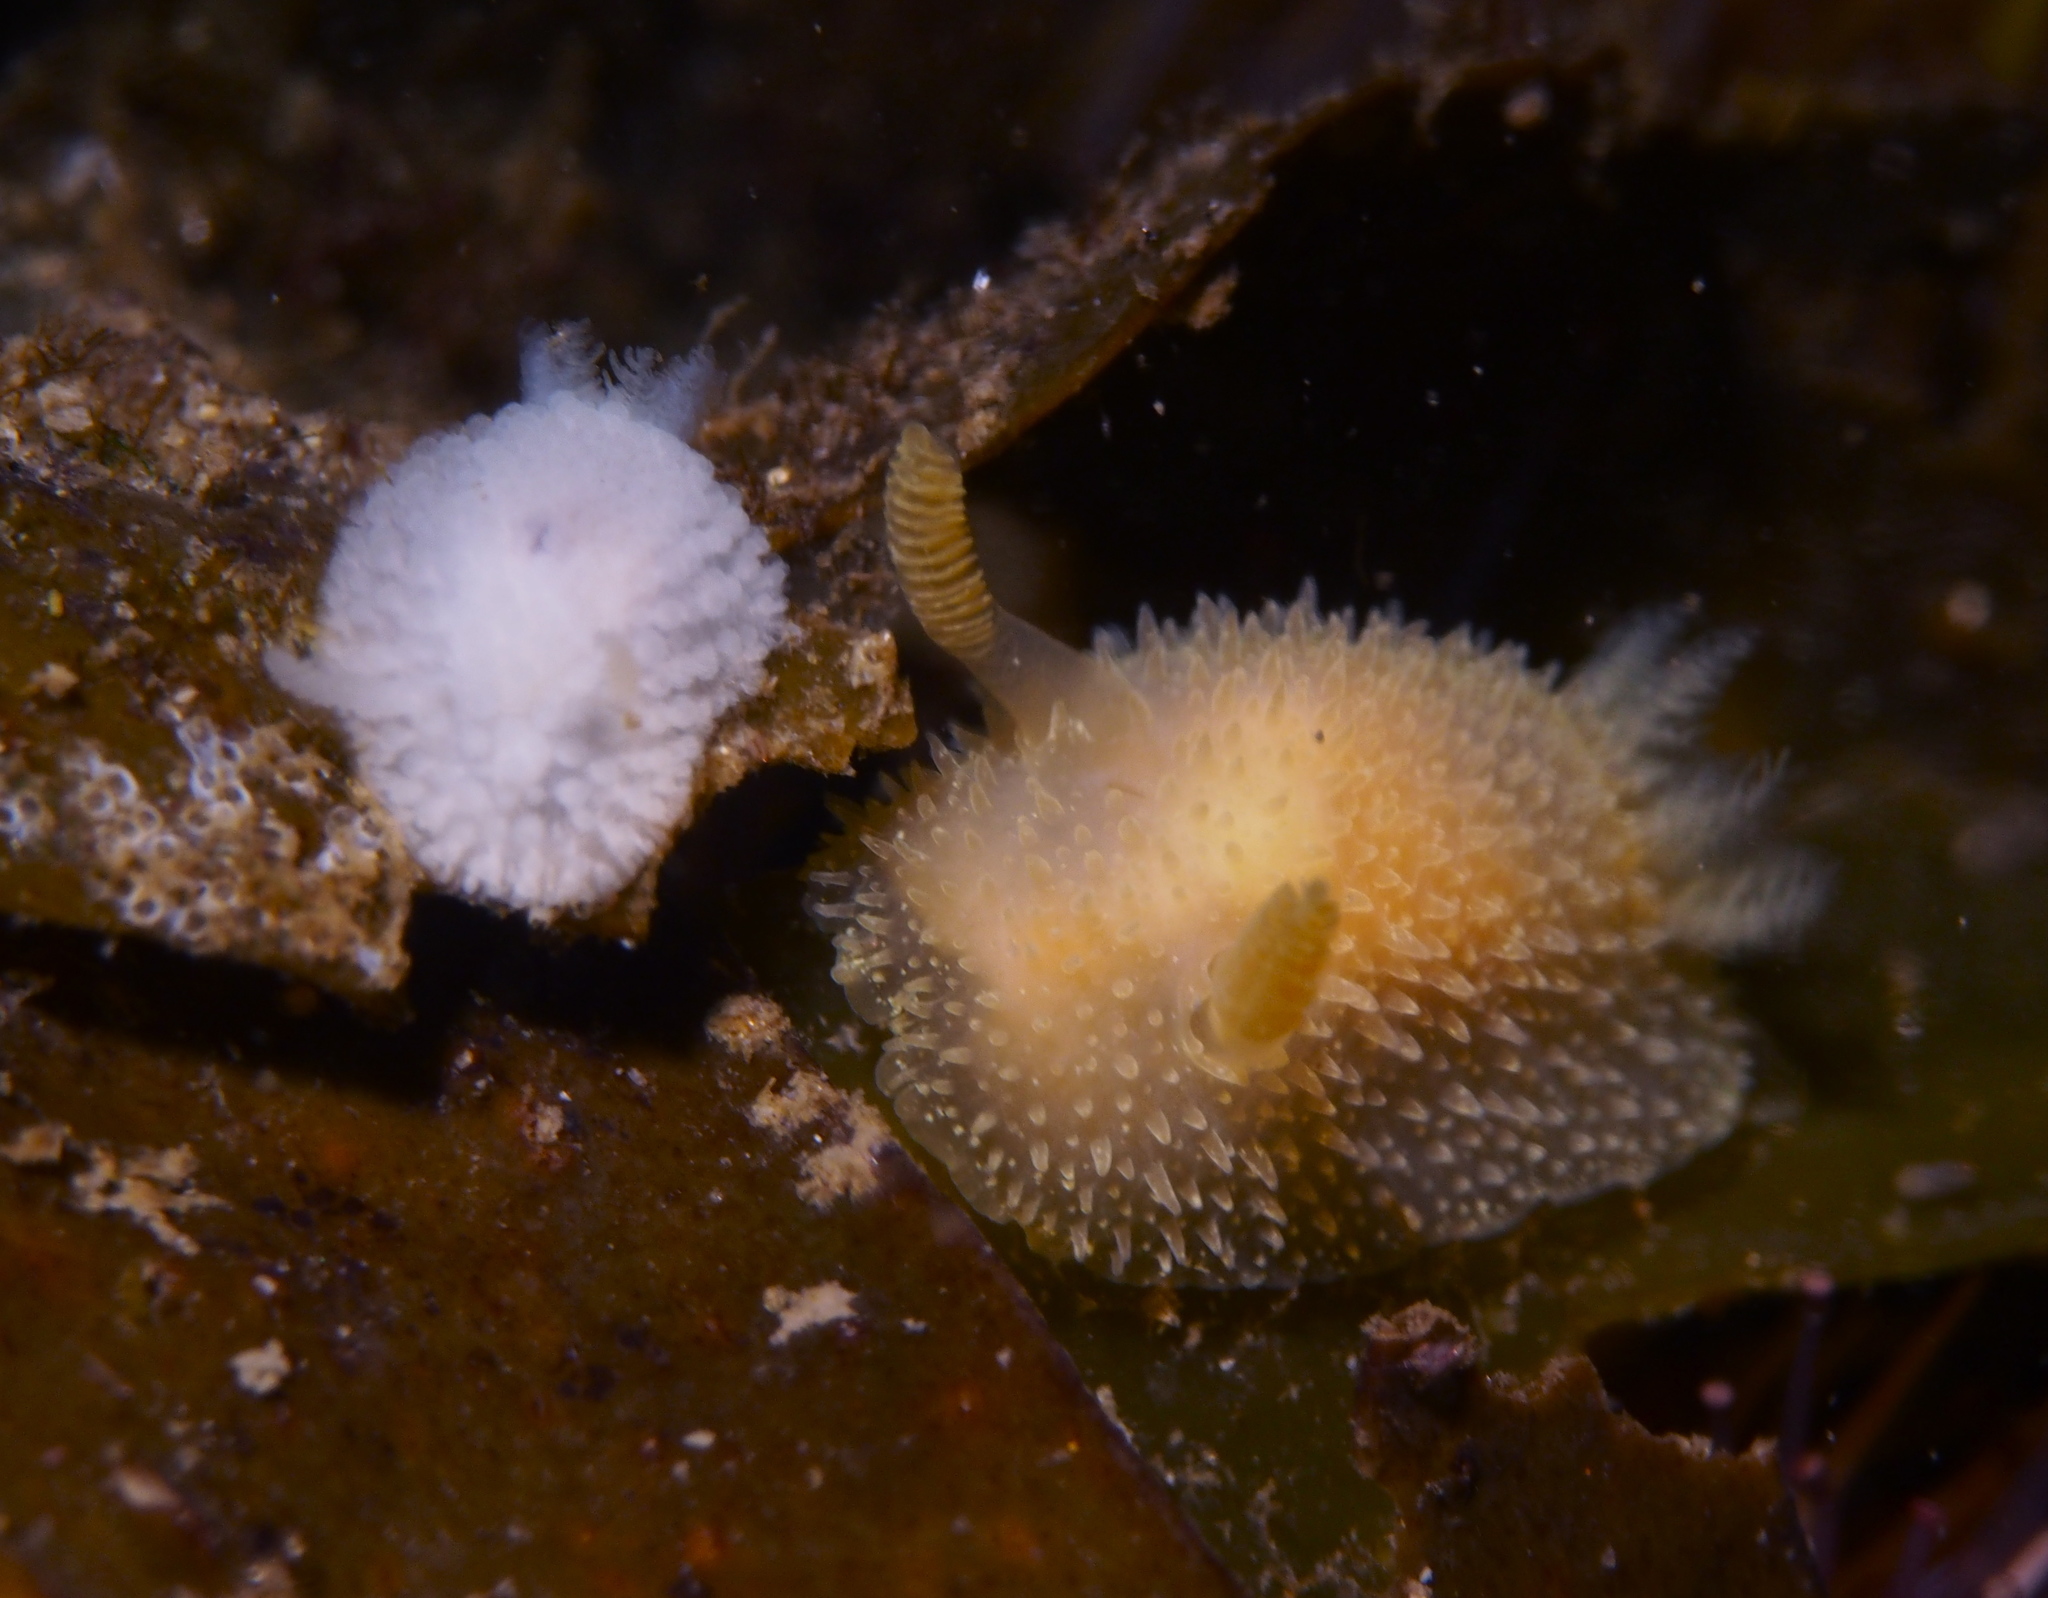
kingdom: Animalia
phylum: Mollusca
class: Gastropoda
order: Nudibranchia
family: Onchidorididae
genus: Acanthodoris
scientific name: Acanthodoris pilosa
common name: Hairy spiny doris
